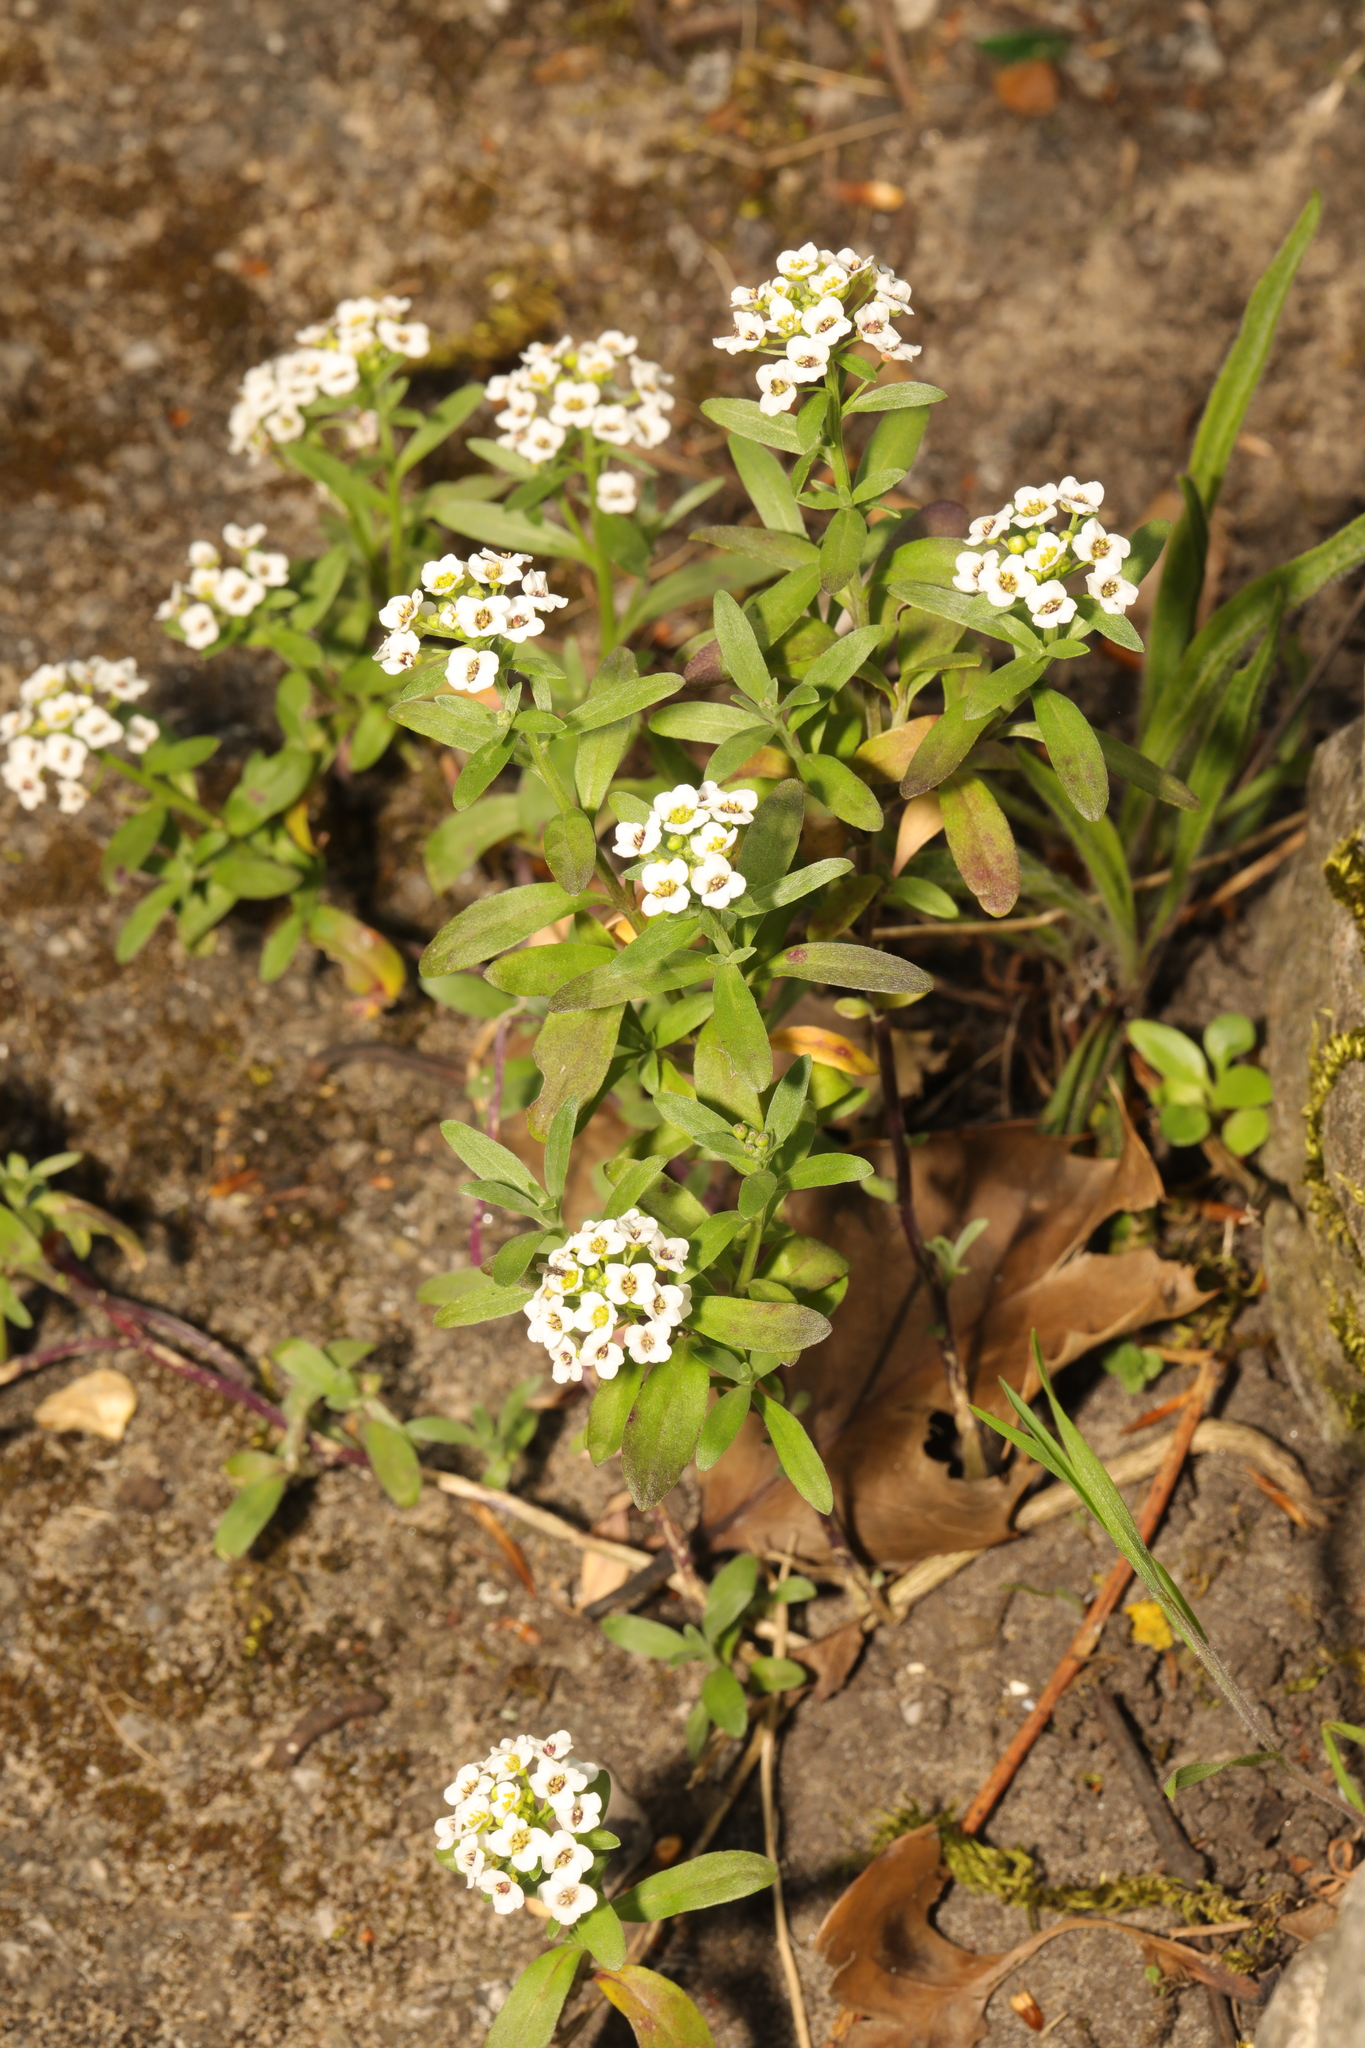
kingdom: Plantae
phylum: Tracheophyta
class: Magnoliopsida
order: Brassicales
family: Brassicaceae
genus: Lobularia
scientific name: Lobularia maritima
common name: Sweet alison
